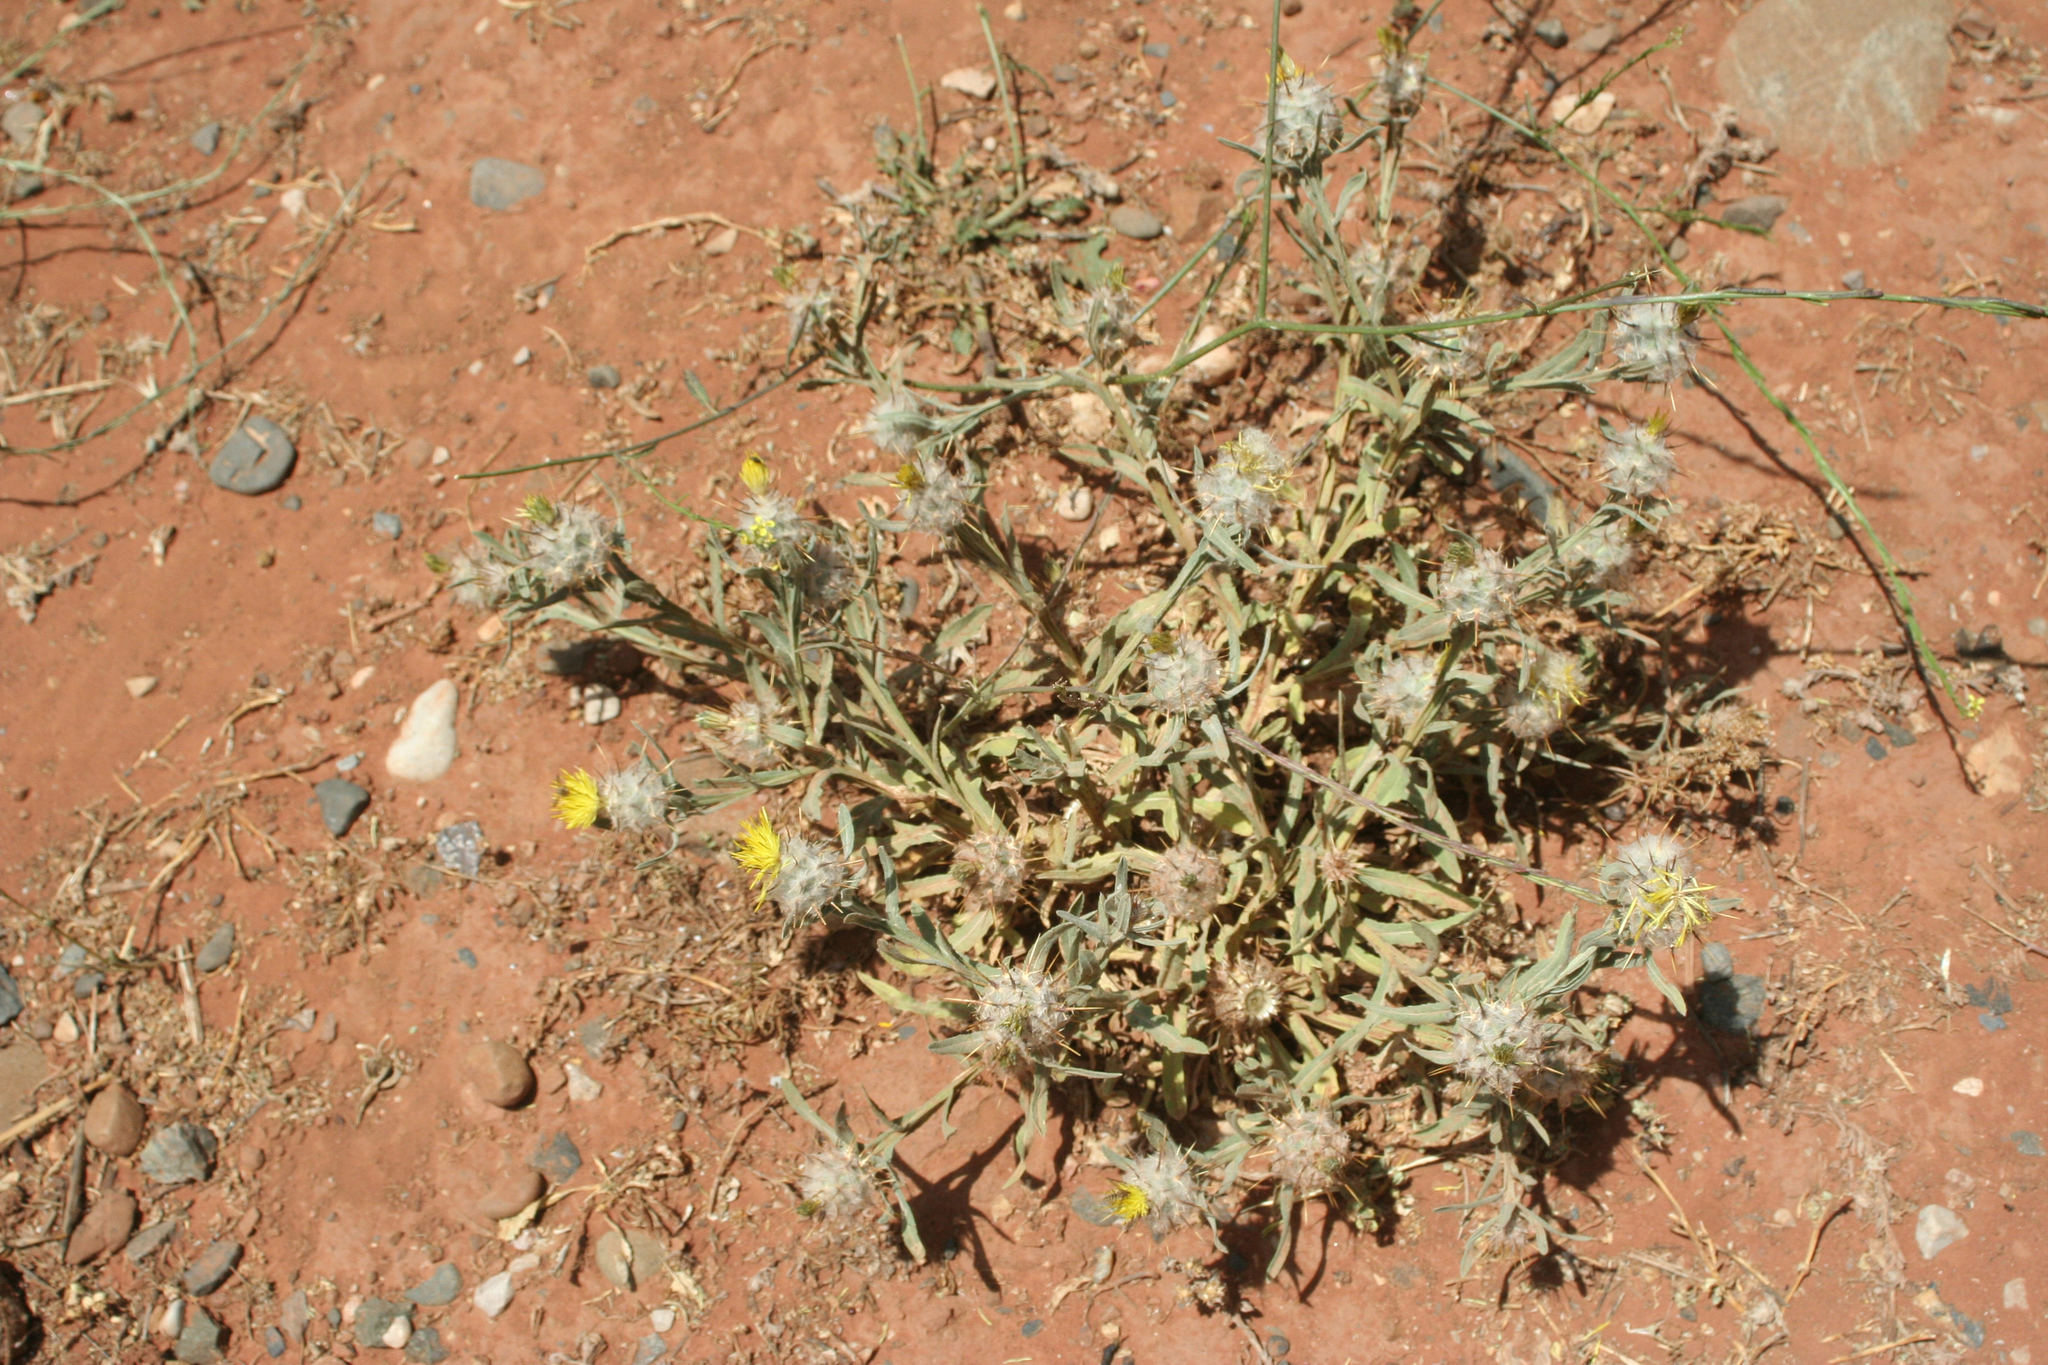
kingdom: Plantae
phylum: Tracheophyta
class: Magnoliopsida
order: Asterales
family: Asteraceae
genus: Centaurea
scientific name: Centaurea eriophora
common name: Wild sandheath
